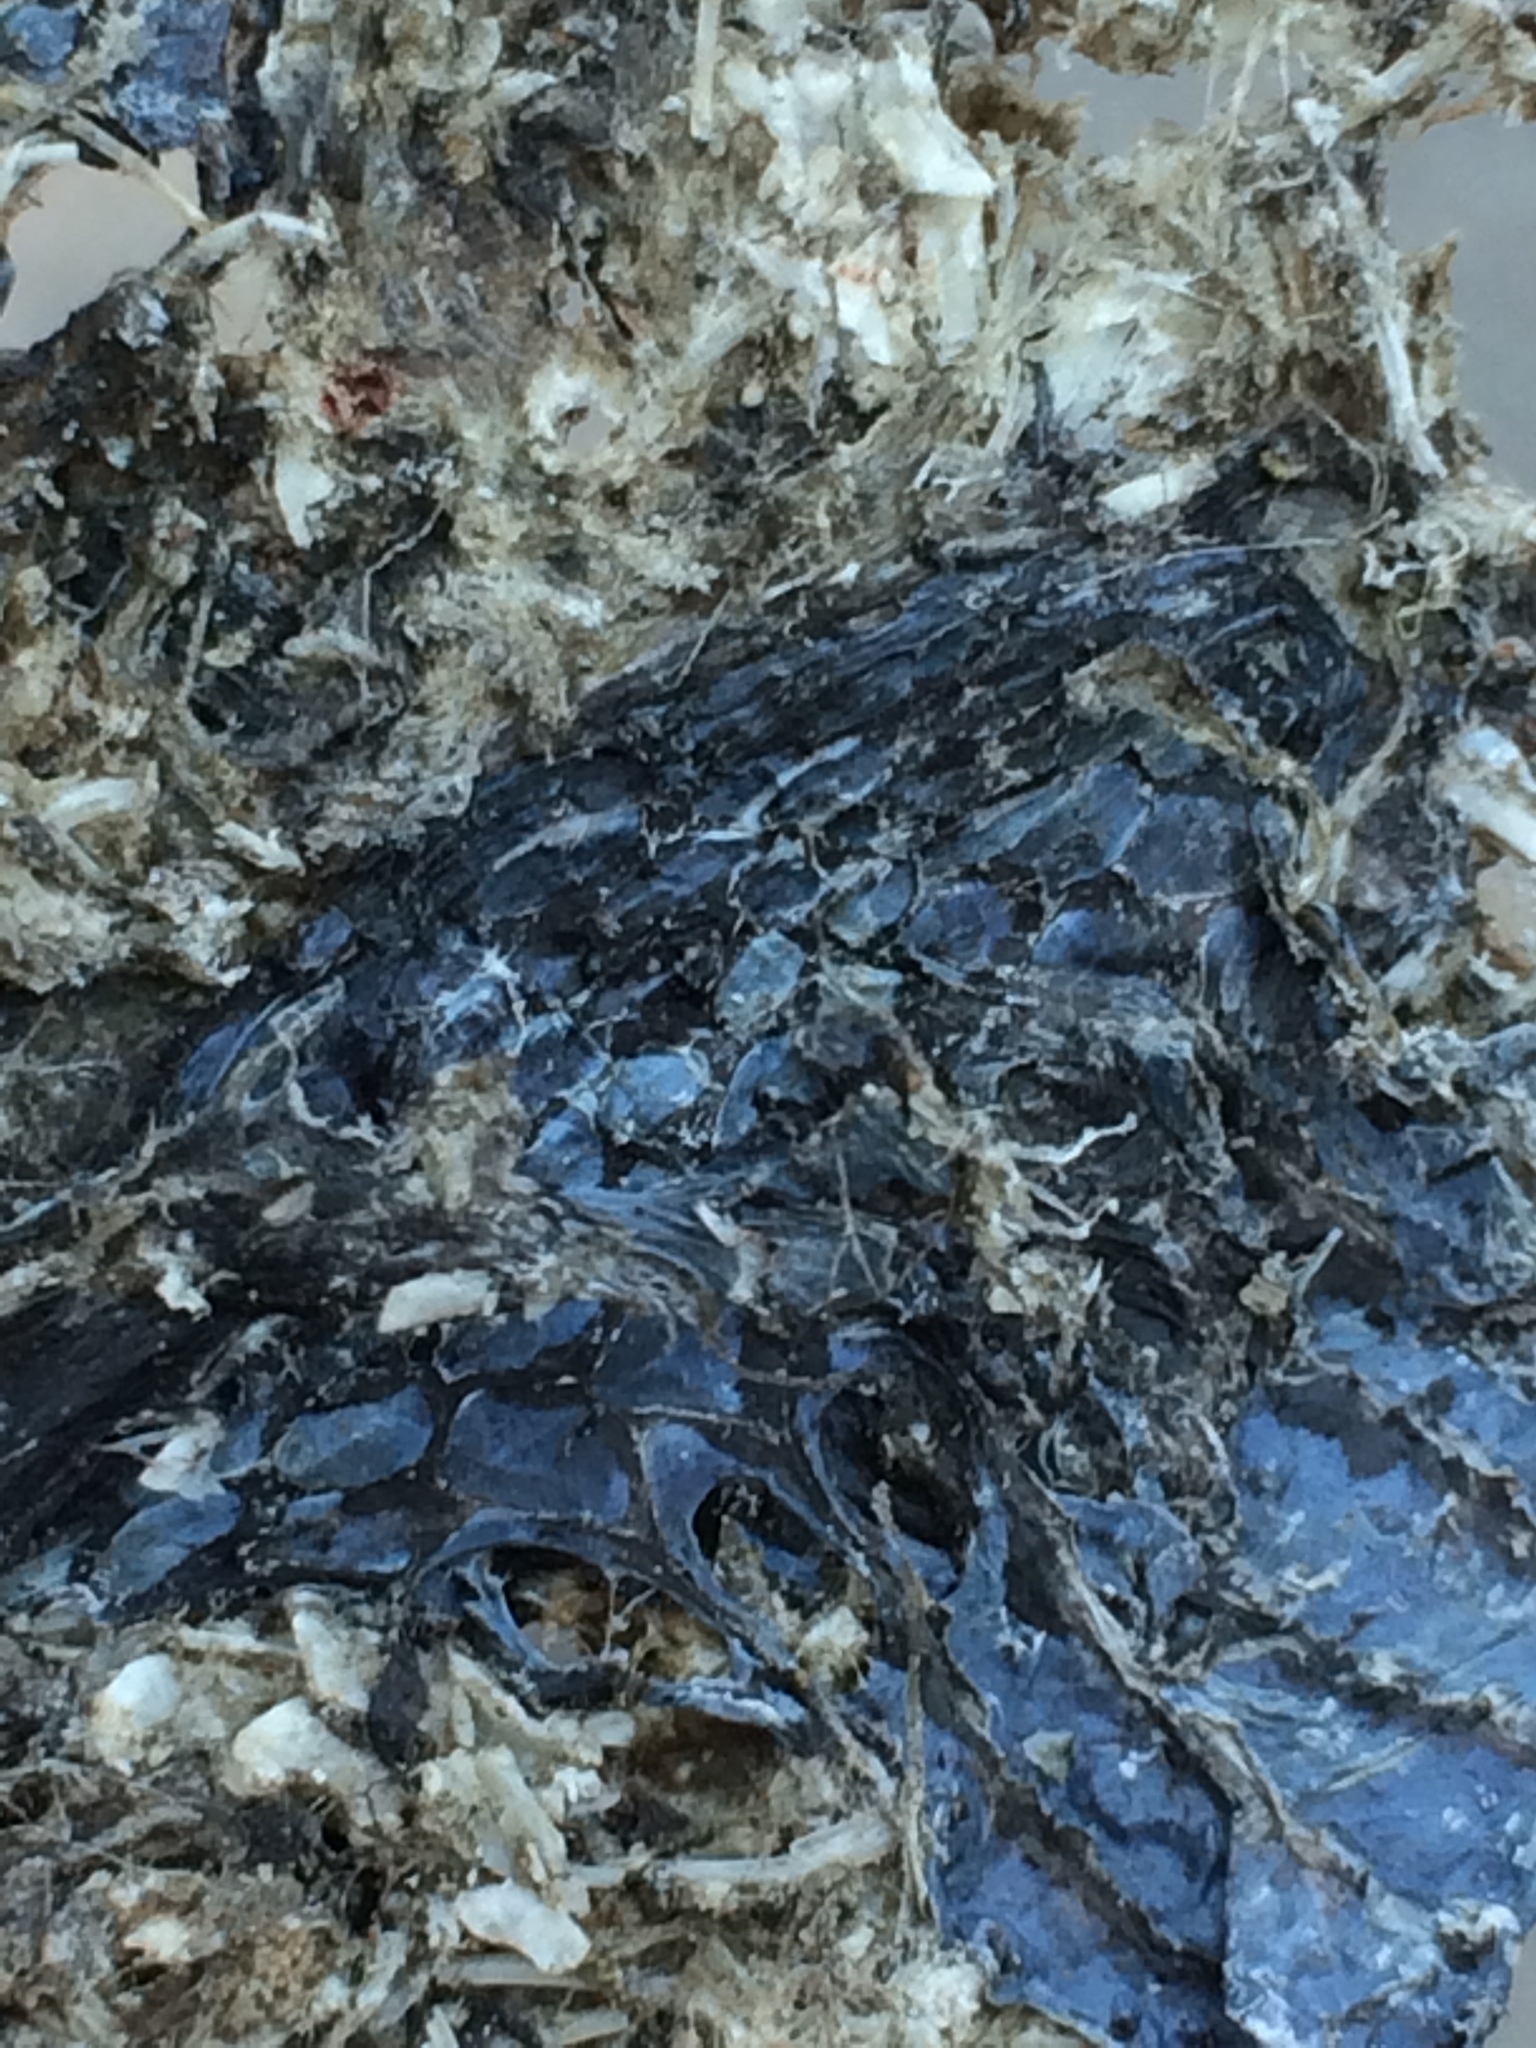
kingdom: Animalia
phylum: Chordata
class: Squamata
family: Colubridae
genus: Thamnophis
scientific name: Thamnophis sirtalis
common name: Common garter snake
